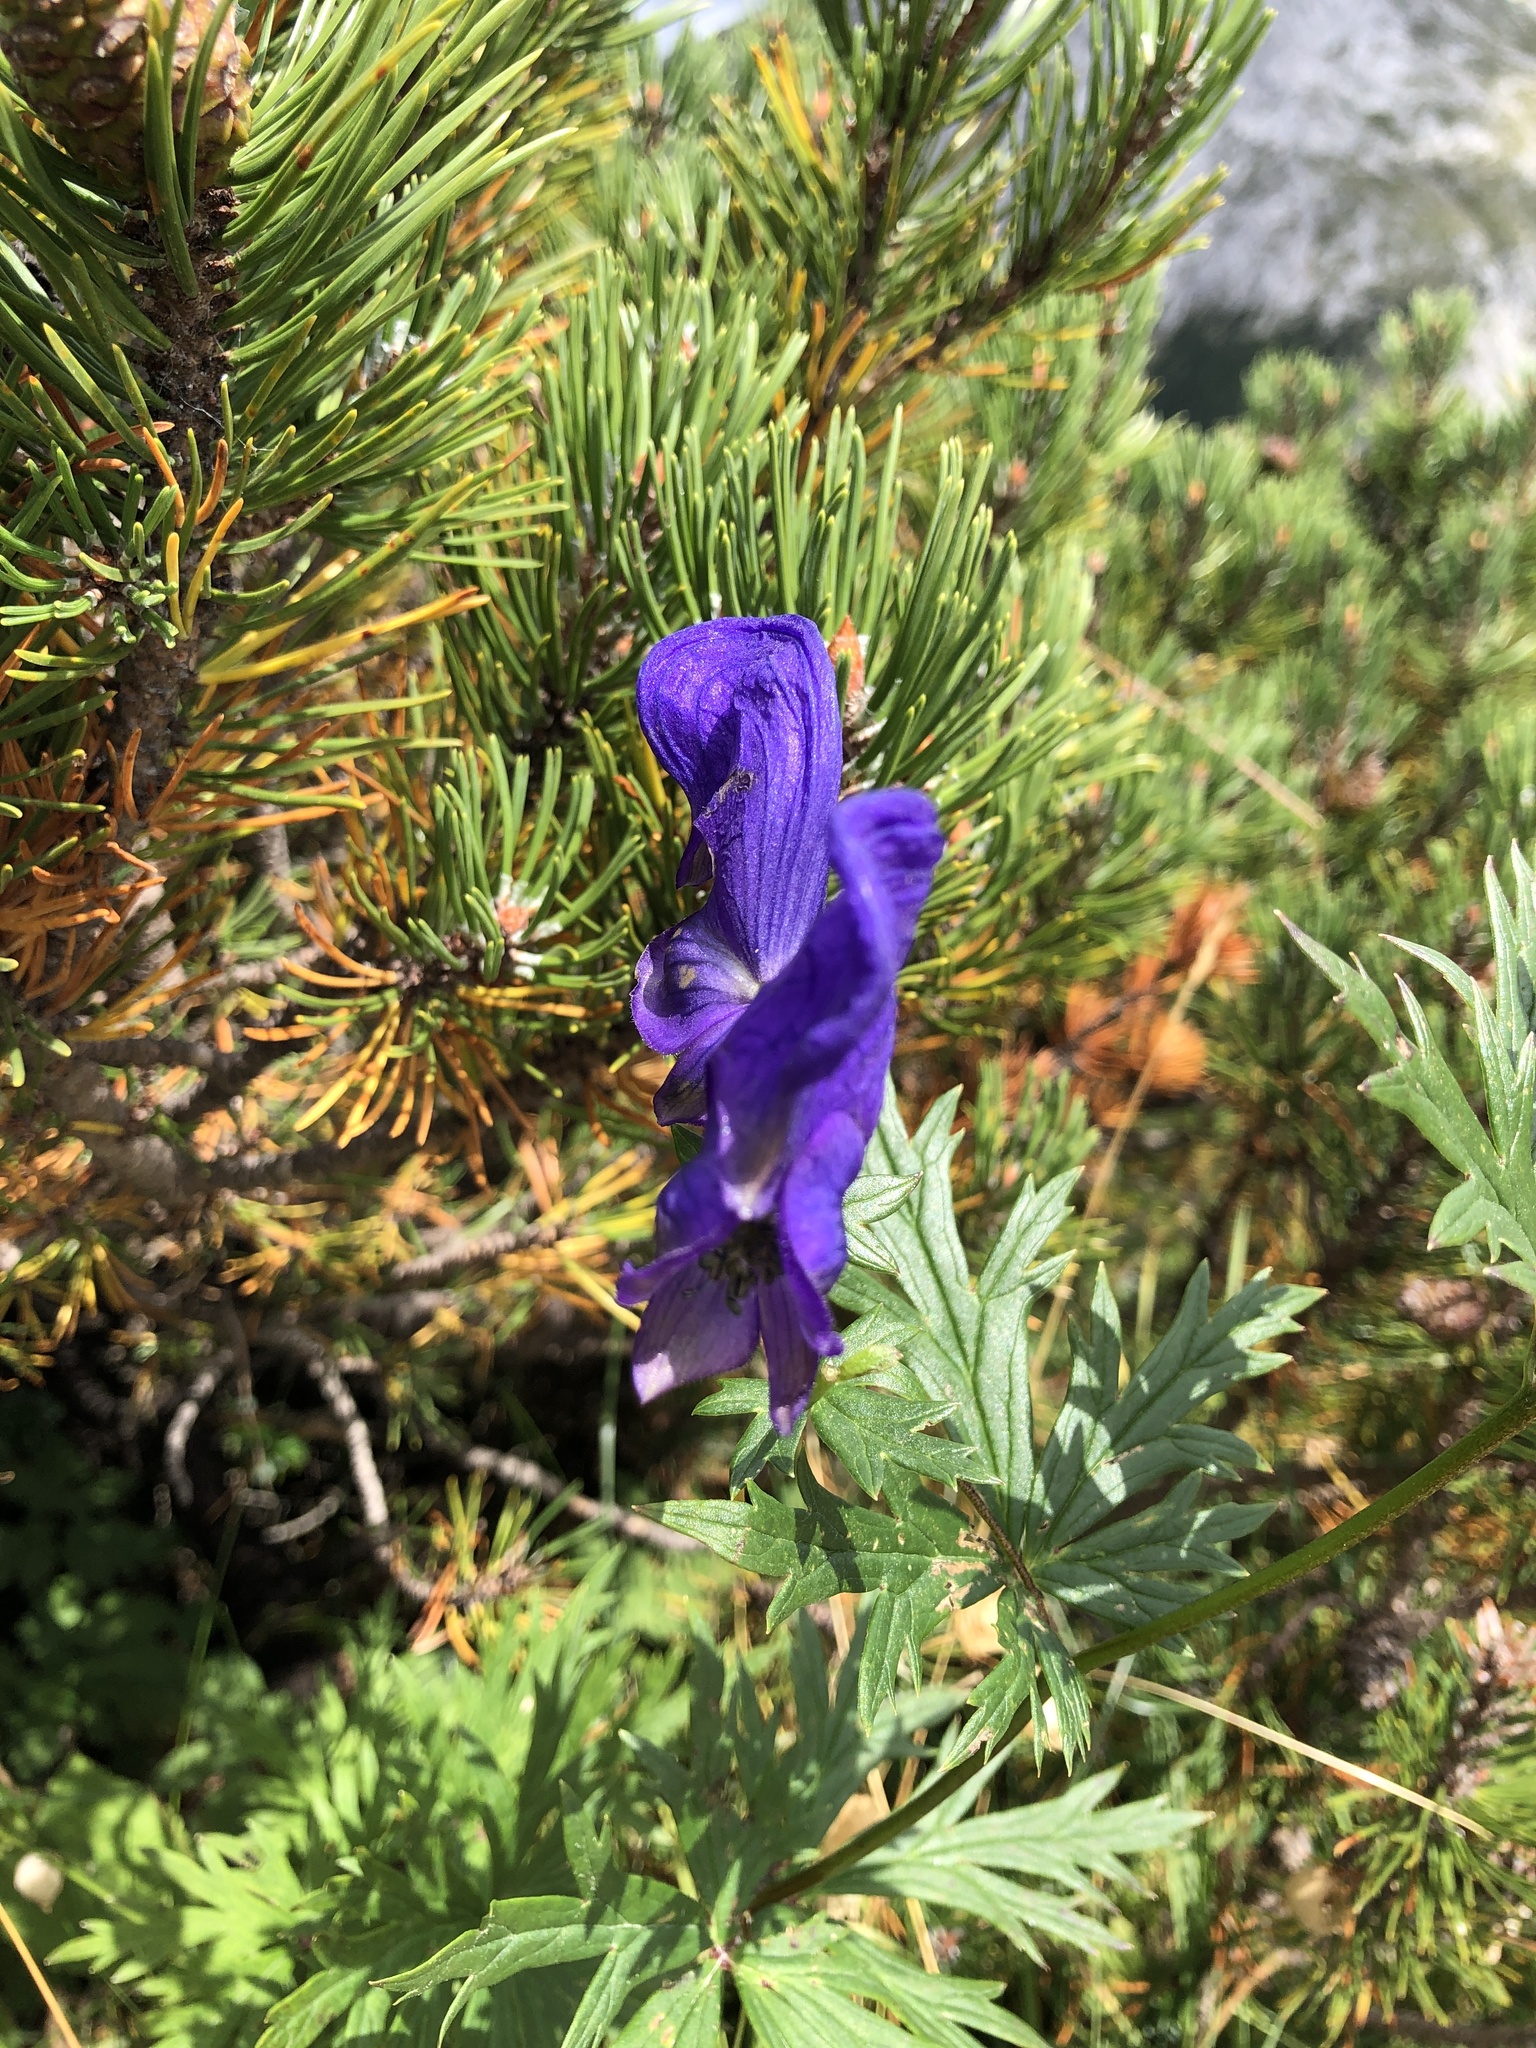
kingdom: Plantae
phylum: Tracheophyta
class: Magnoliopsida
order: Ranunculales
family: Ranunculaceae
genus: Aconitum
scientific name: Aconitum variegatum
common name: Manchurian monkshood
